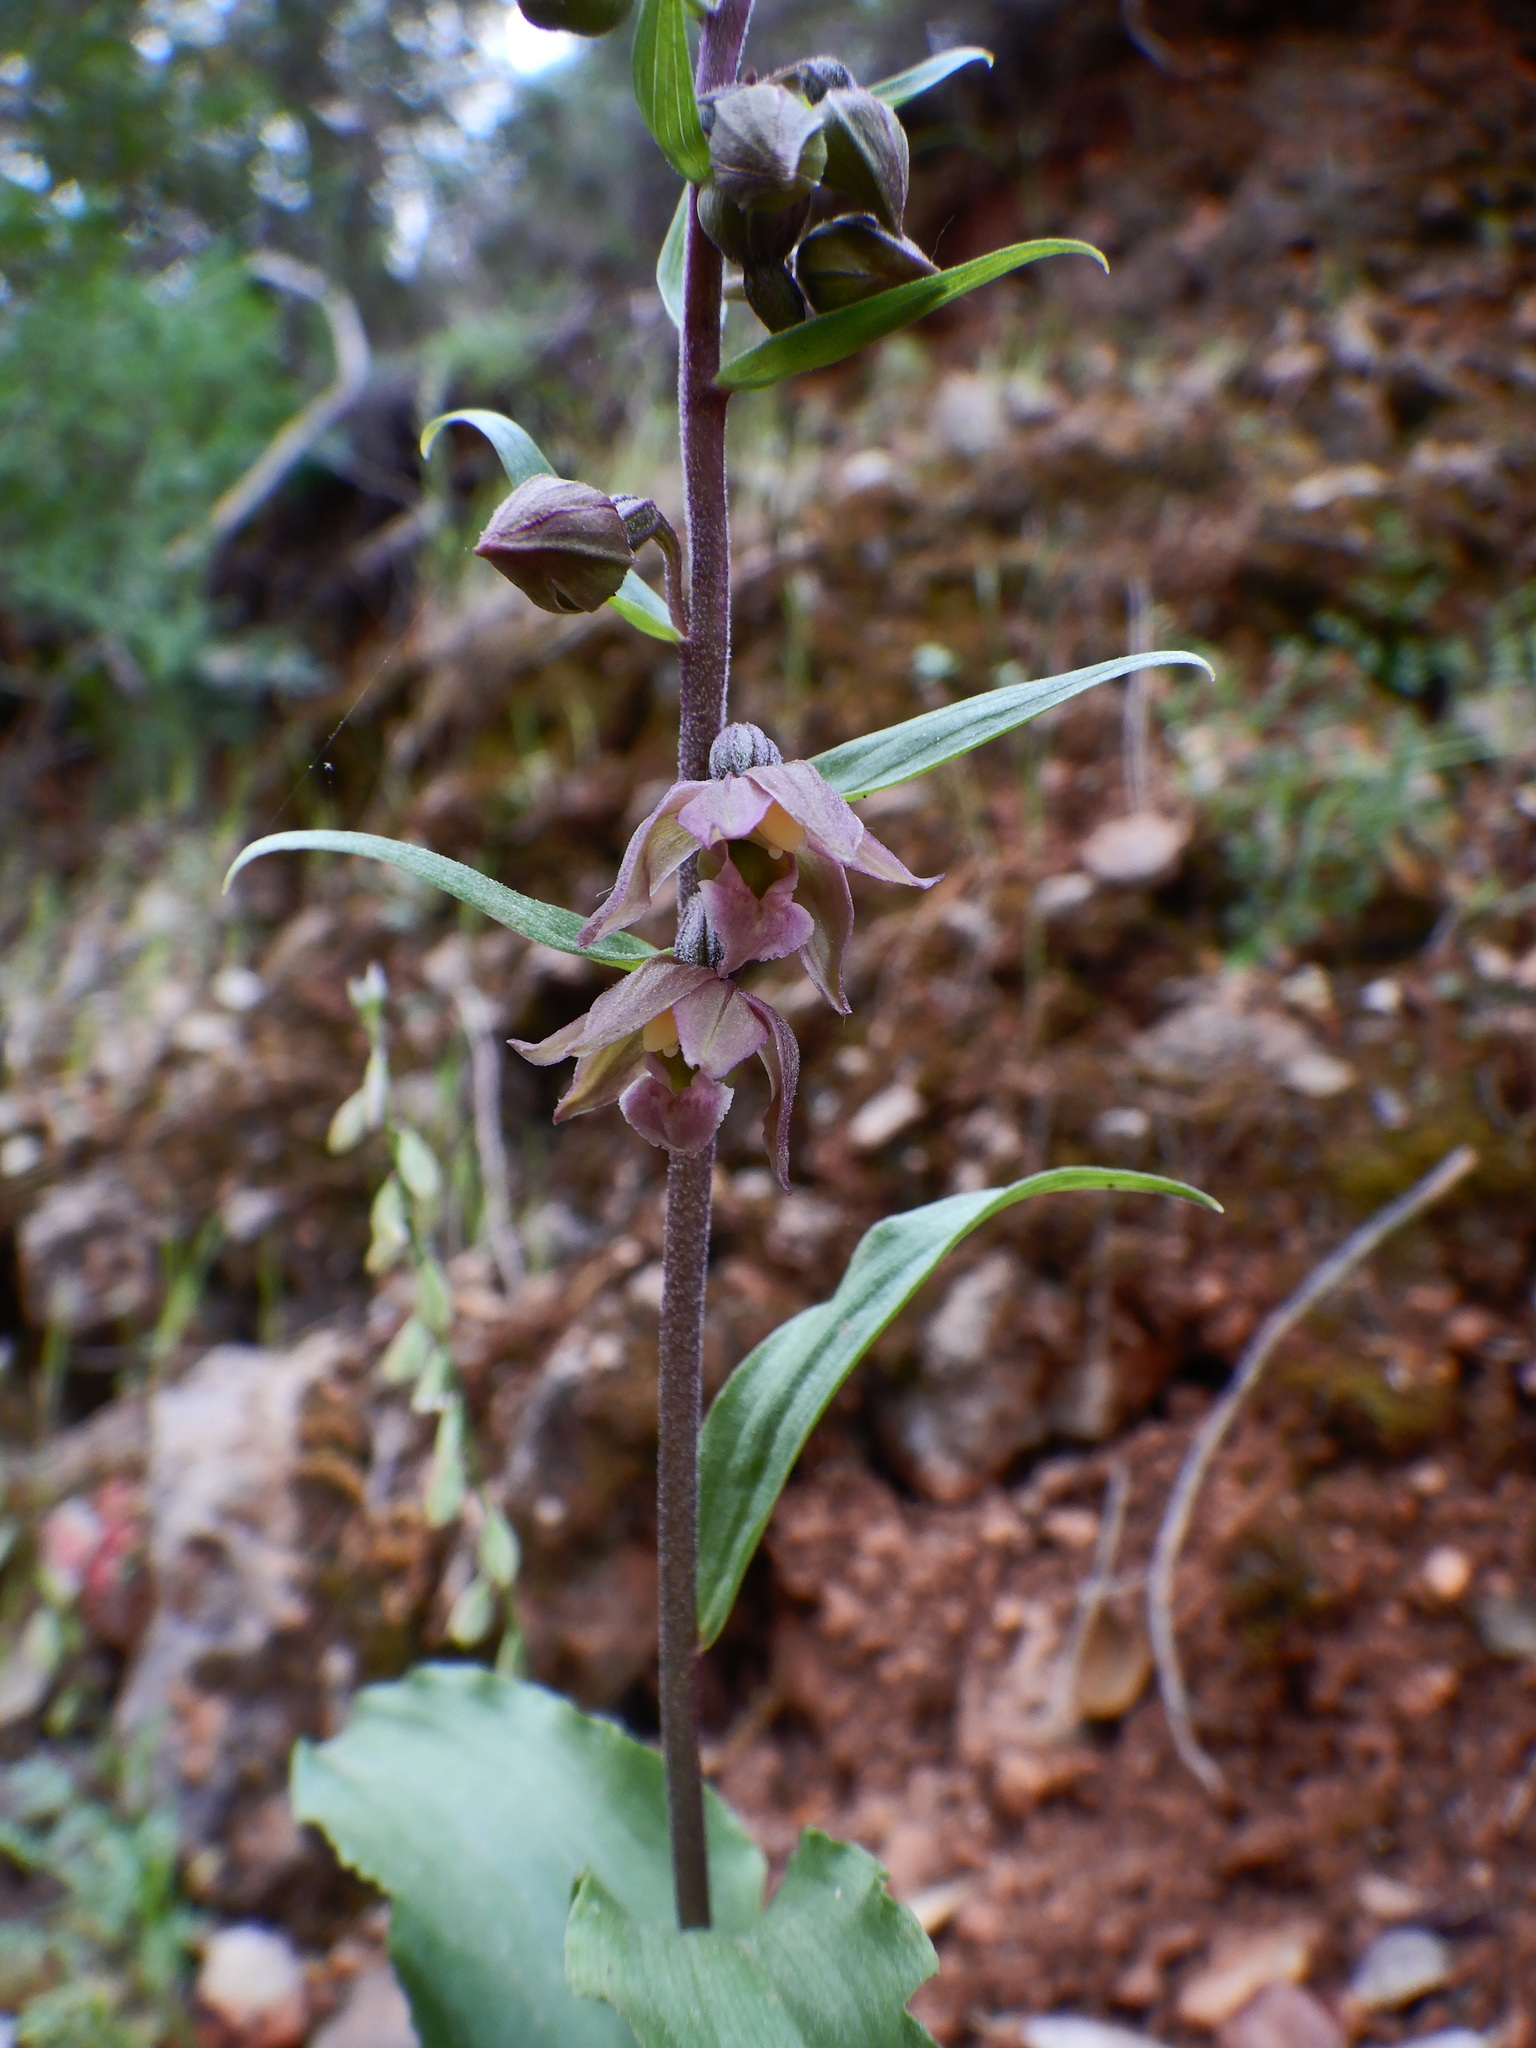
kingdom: Plantae
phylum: Tracheophyta
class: Liliopsida
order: Asparagales
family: Orchidaceae
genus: Epipactis
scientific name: Epipactis helleborine
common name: Broad-leaved helleborine
